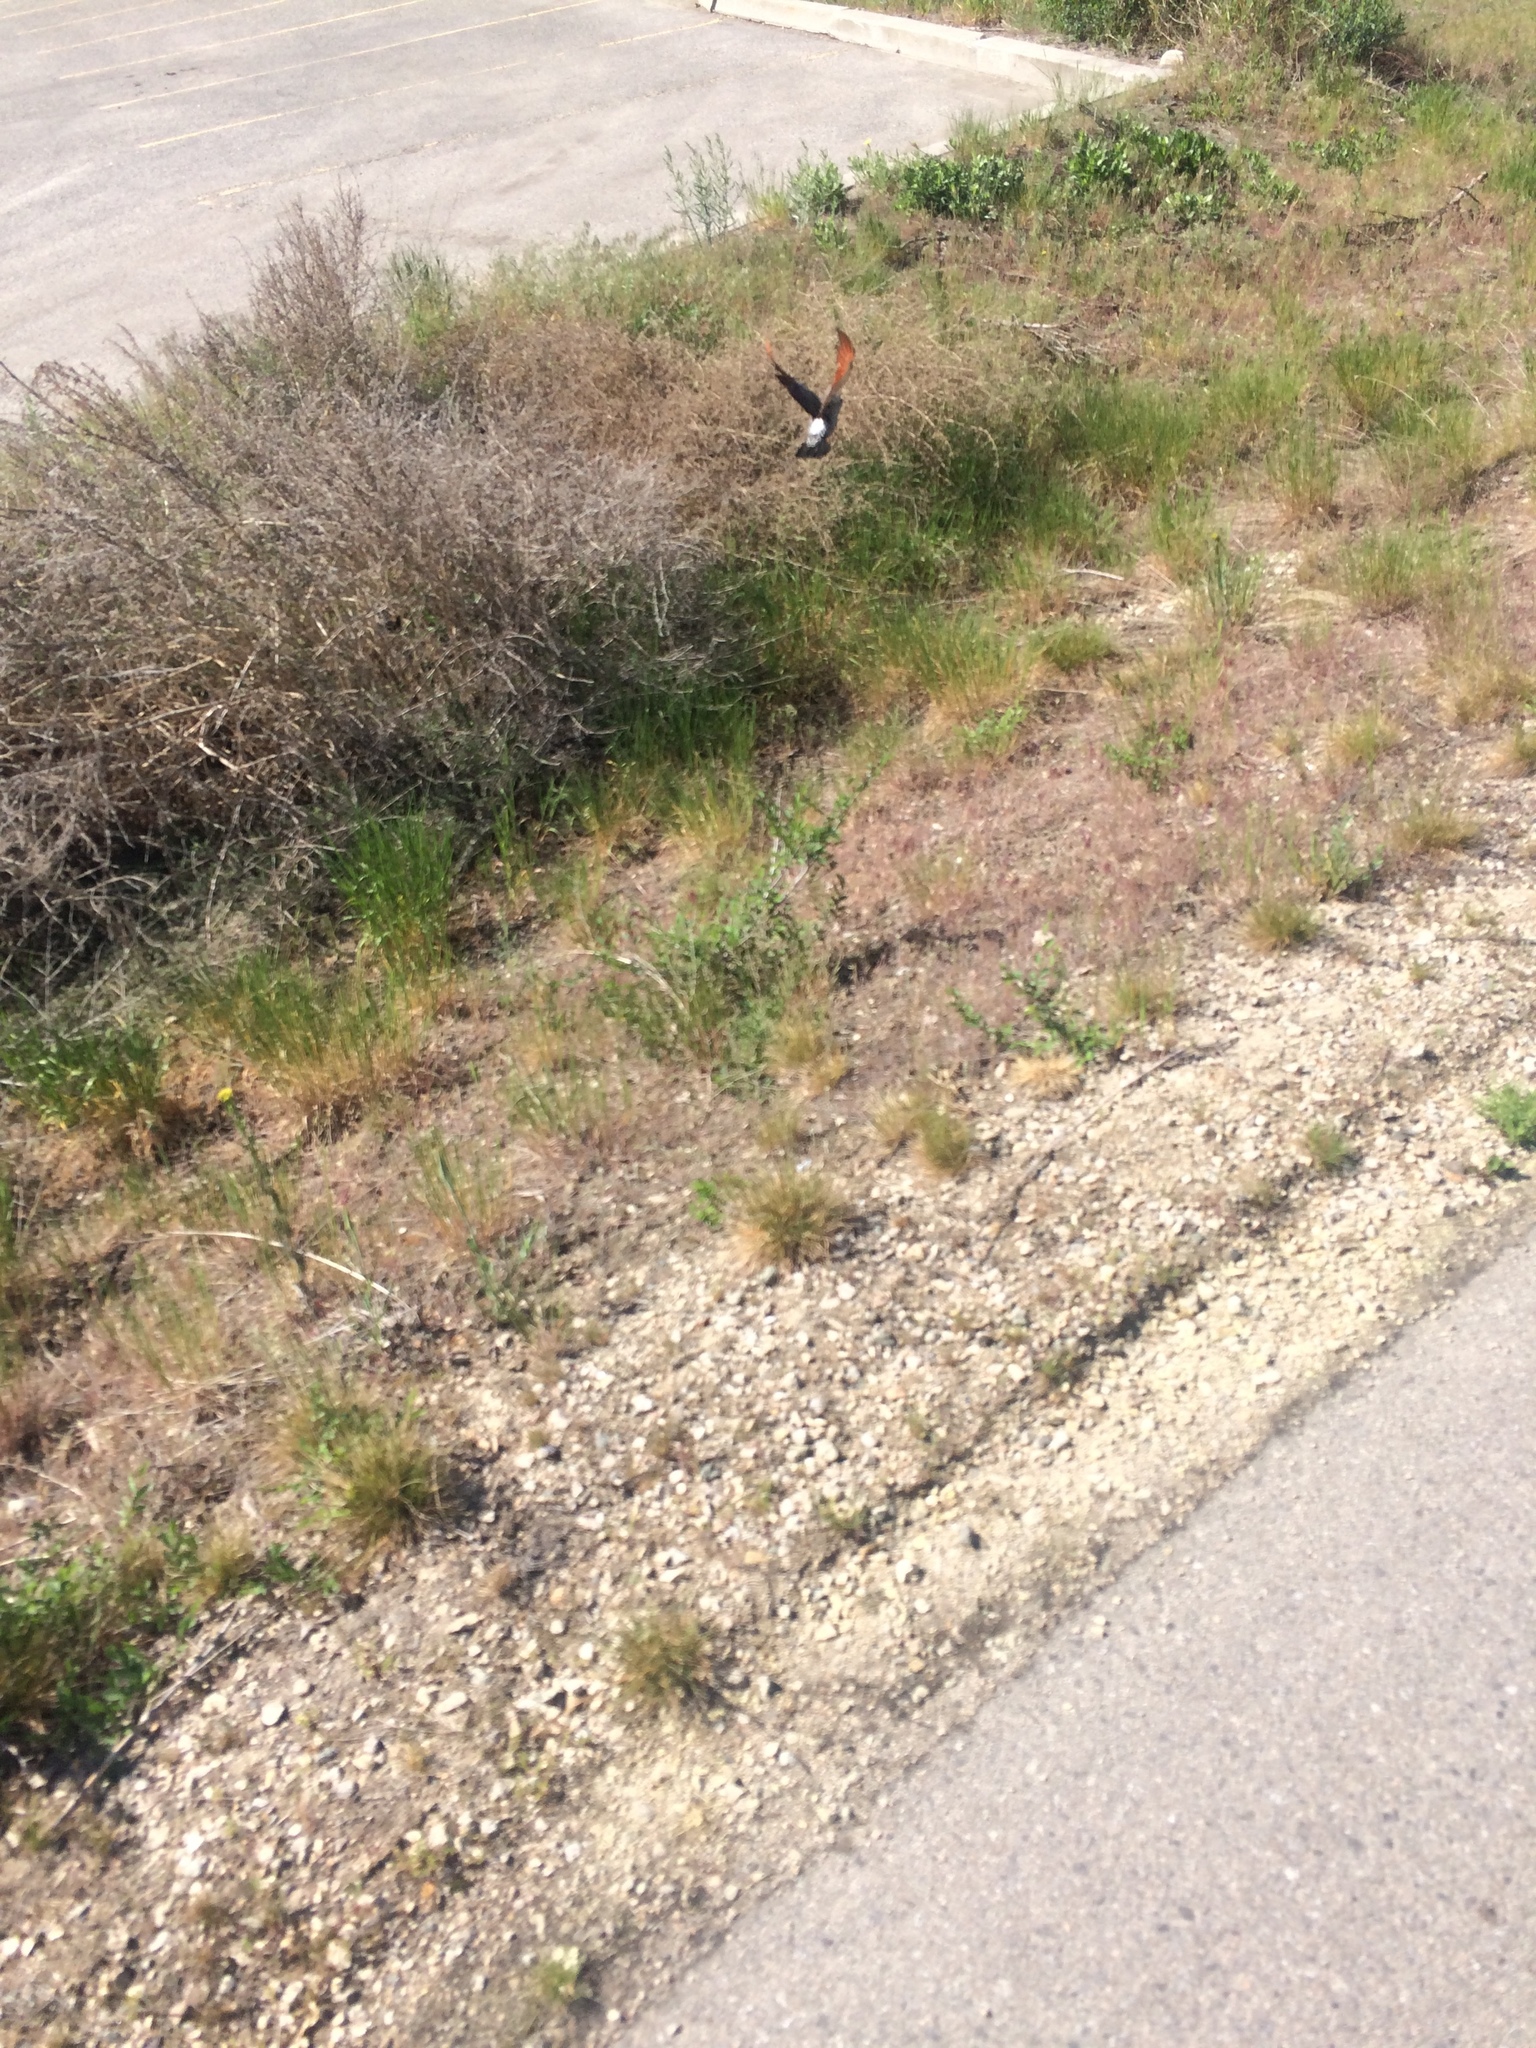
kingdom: Animalia
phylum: Chordata
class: Aves
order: Piciformes
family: Picidae
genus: Colaptes
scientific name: Colaptes auratus
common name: Northern flicker
